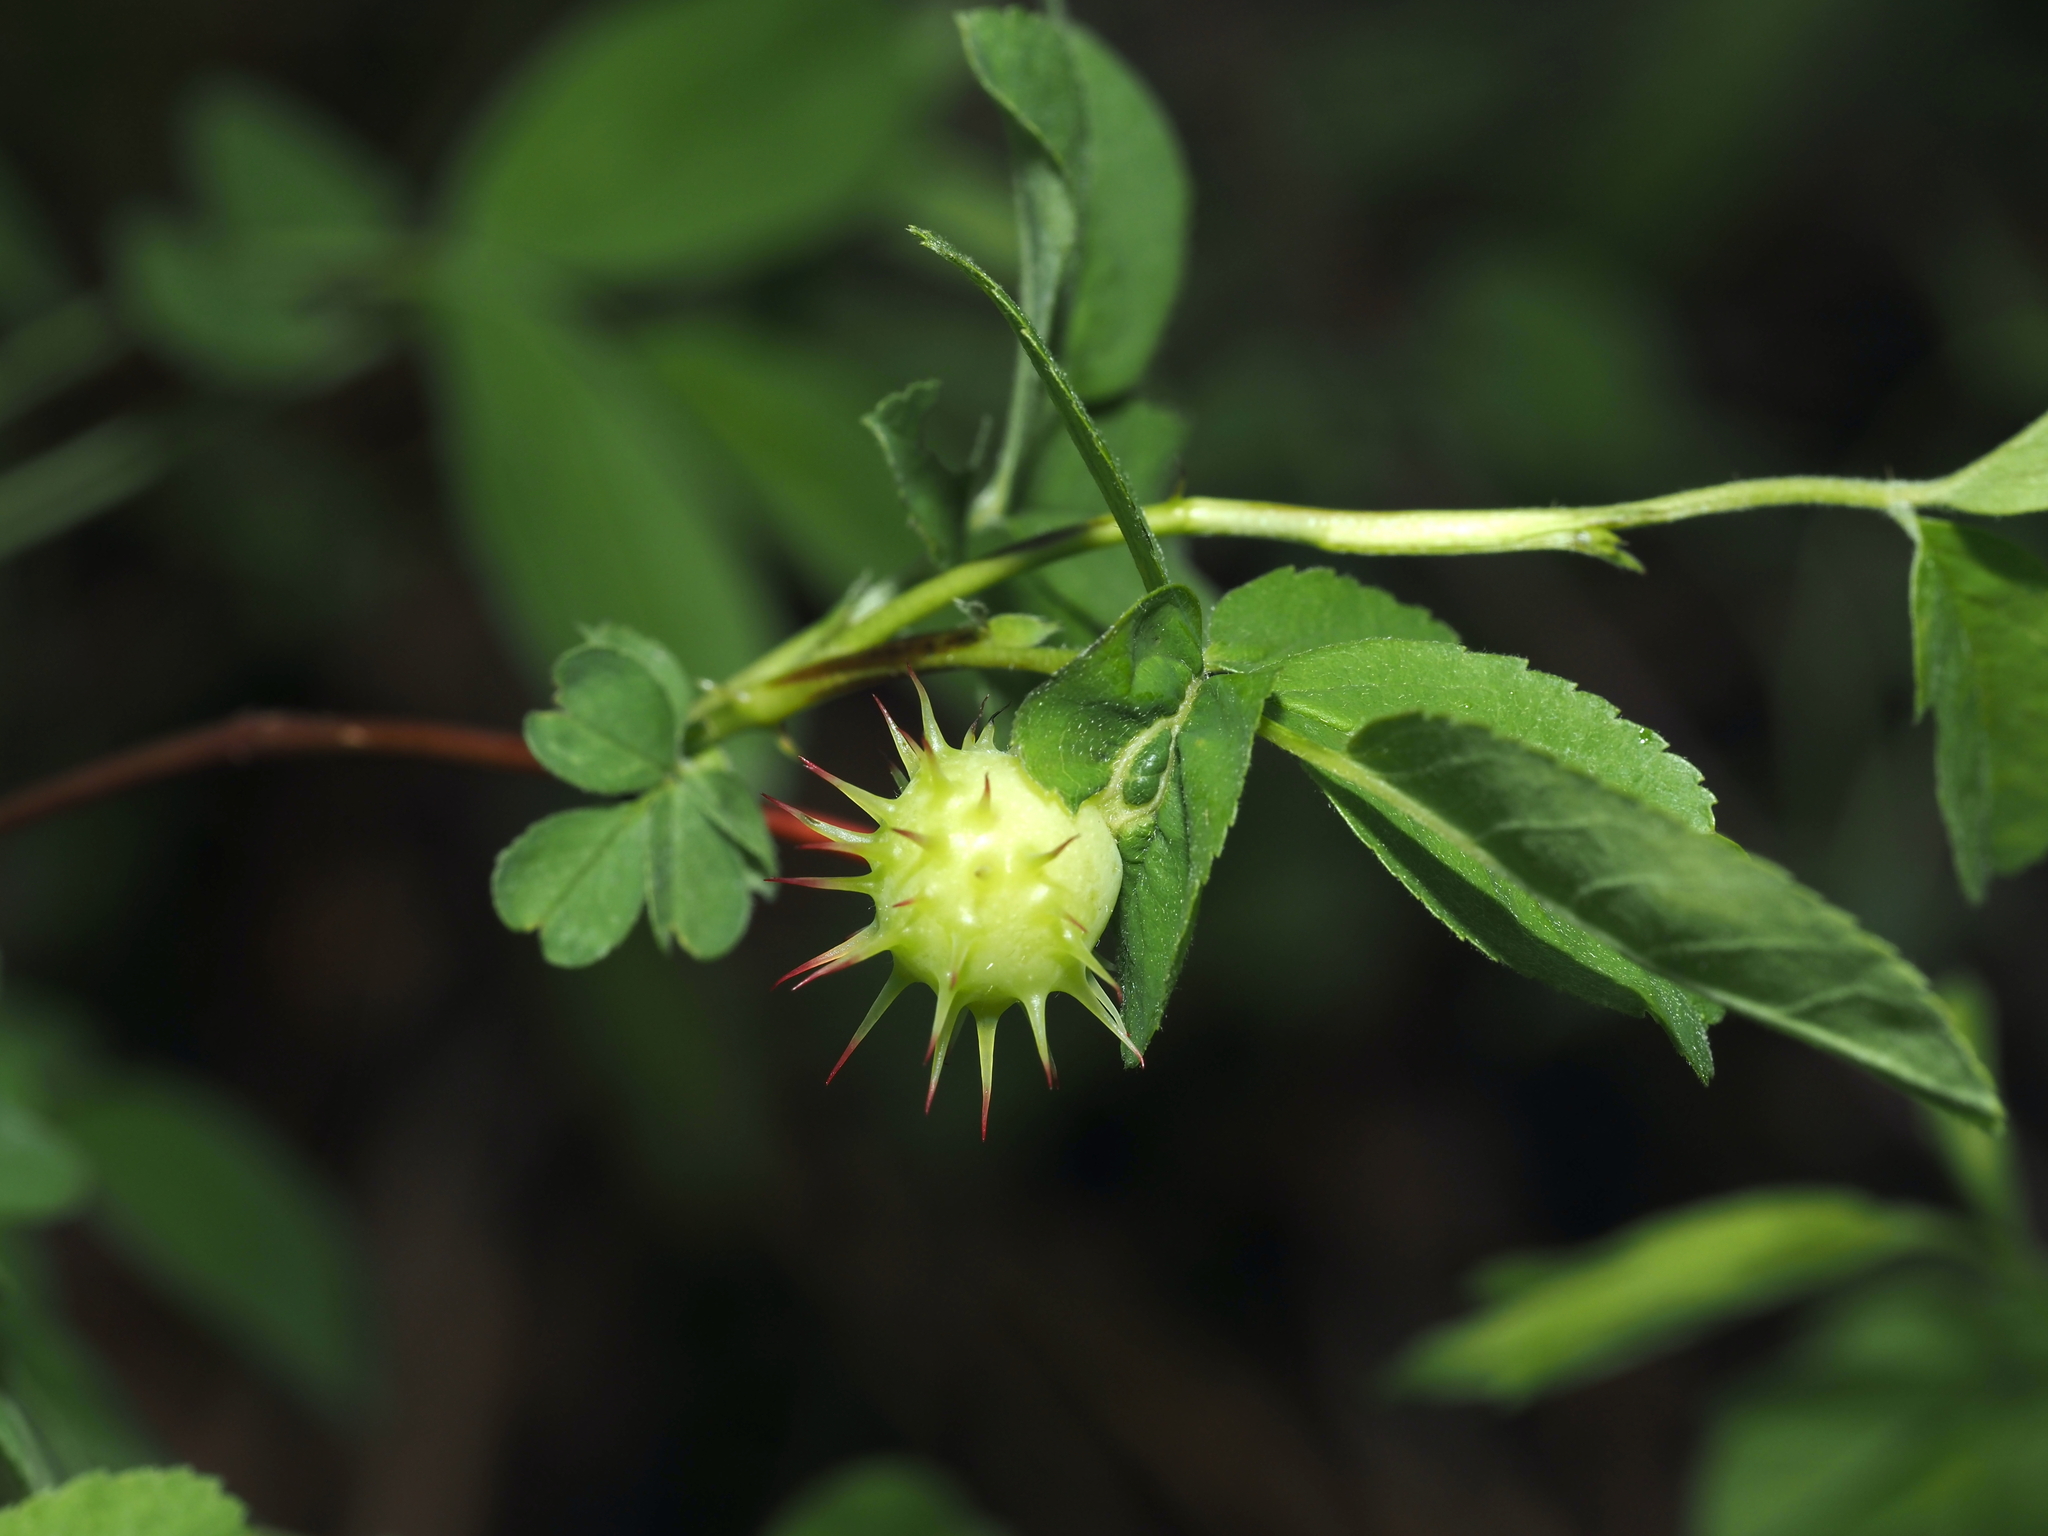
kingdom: Animalia
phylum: Arthropoda
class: Insecta
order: Hymenoptera
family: Cynipidae
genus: Diplolepis
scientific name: Diplolepis polita
